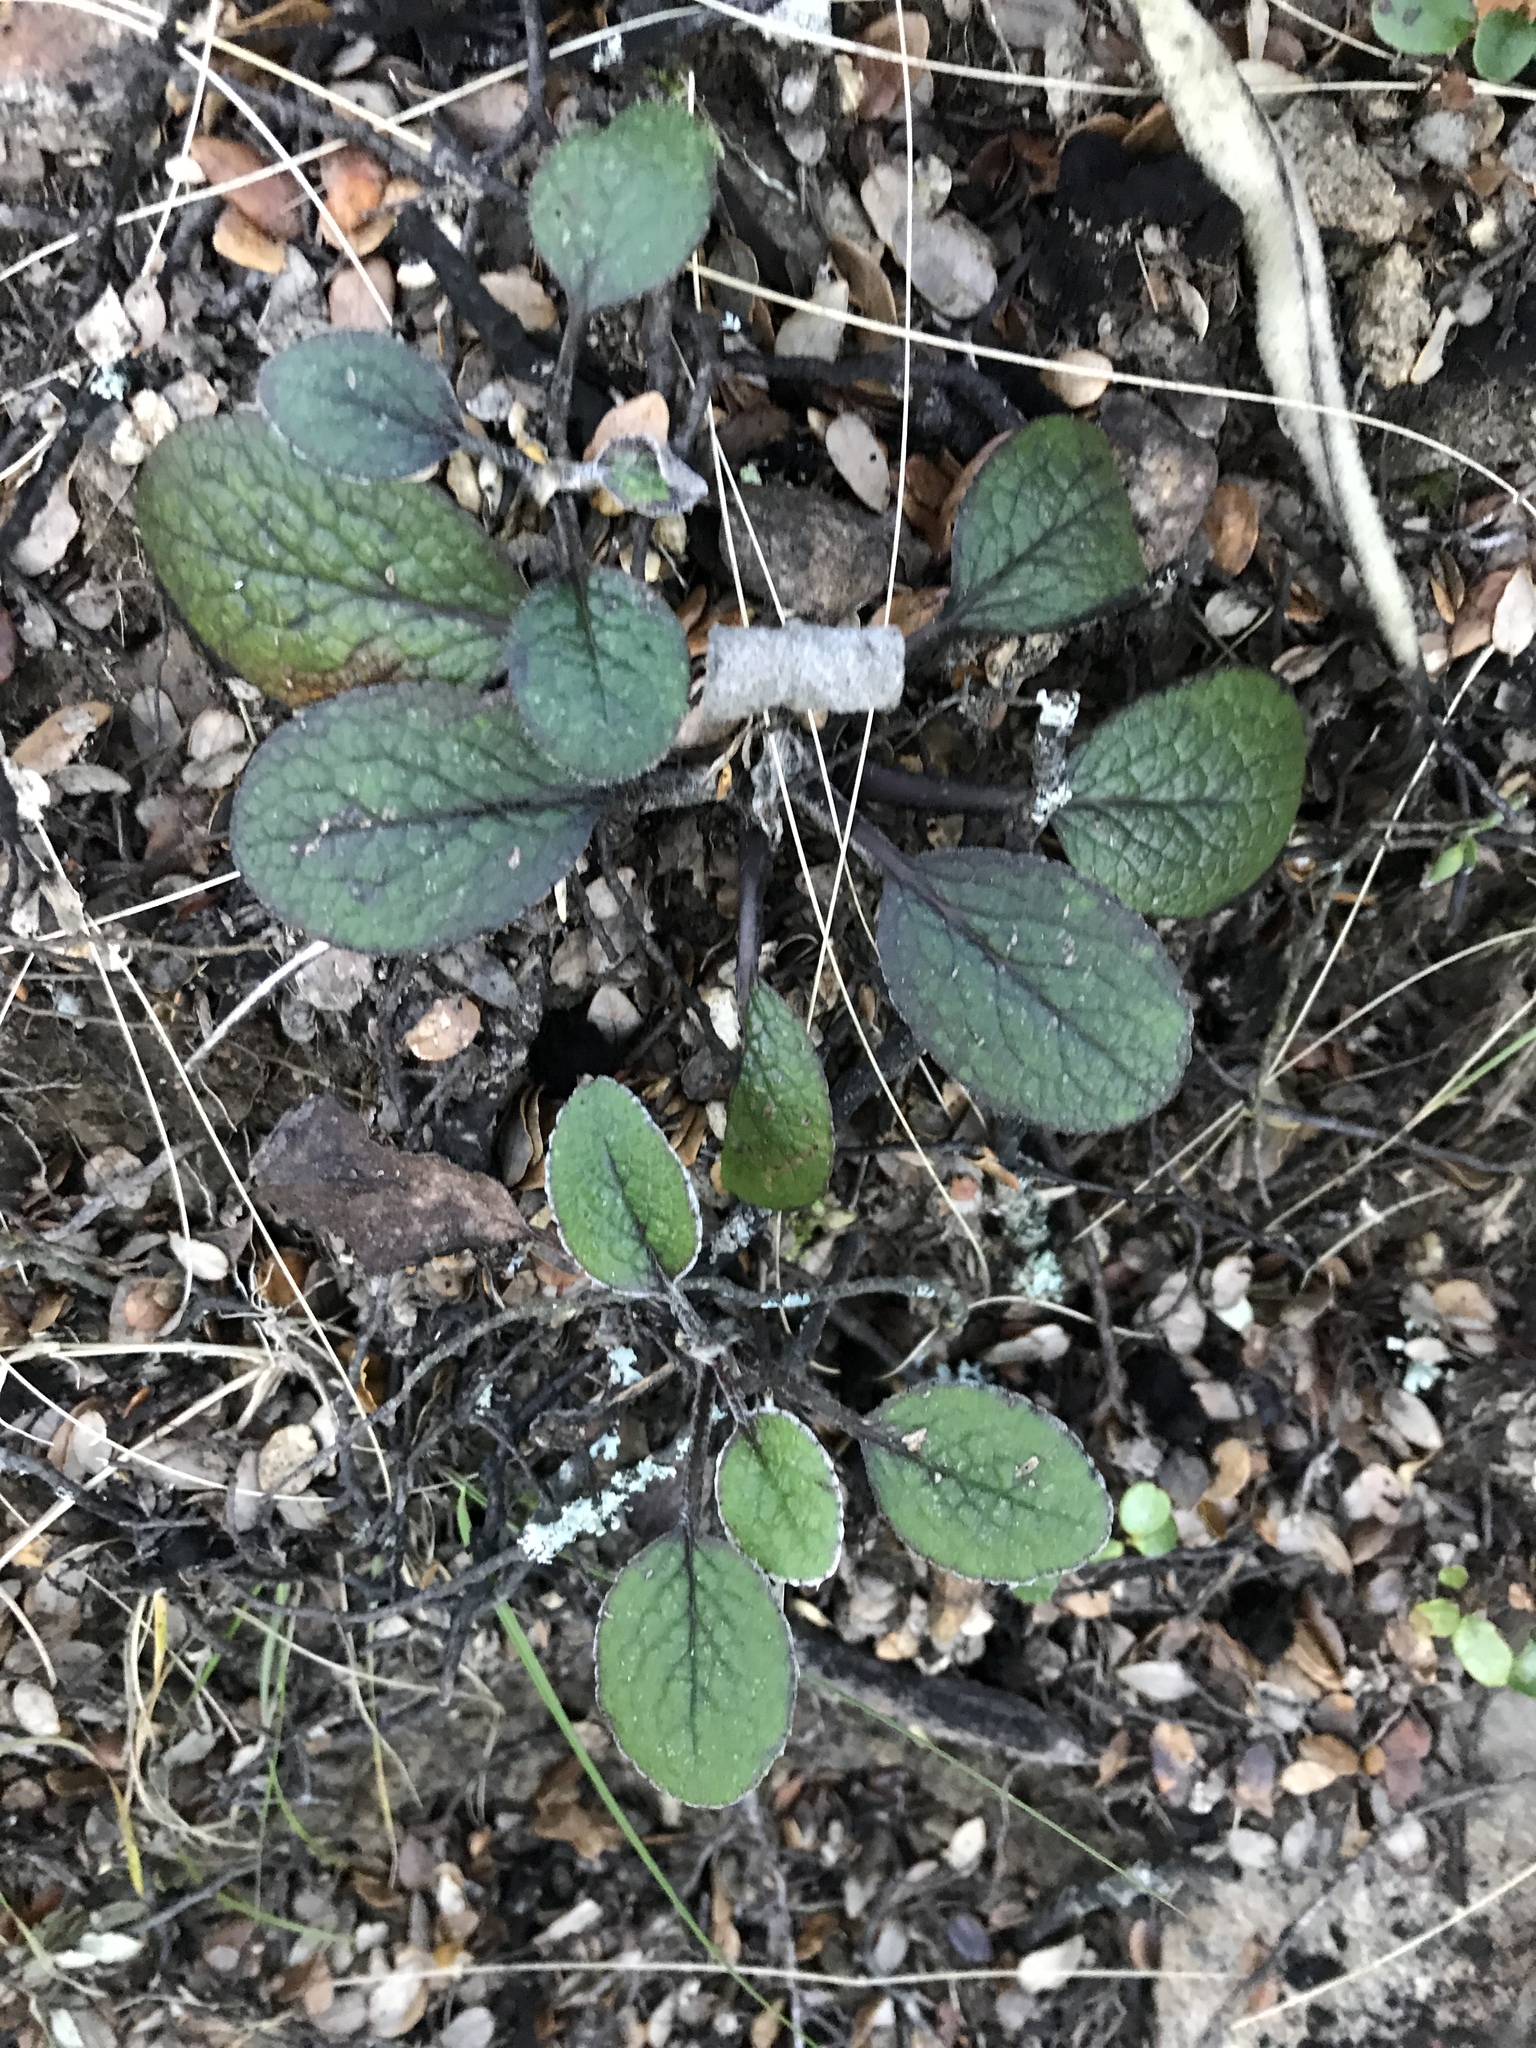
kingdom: Plantae
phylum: Tracheophyta
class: Magnoliopsida
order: Asterales
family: Asteraceae
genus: Brachyglottis
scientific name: Brachyglottis lagopus
